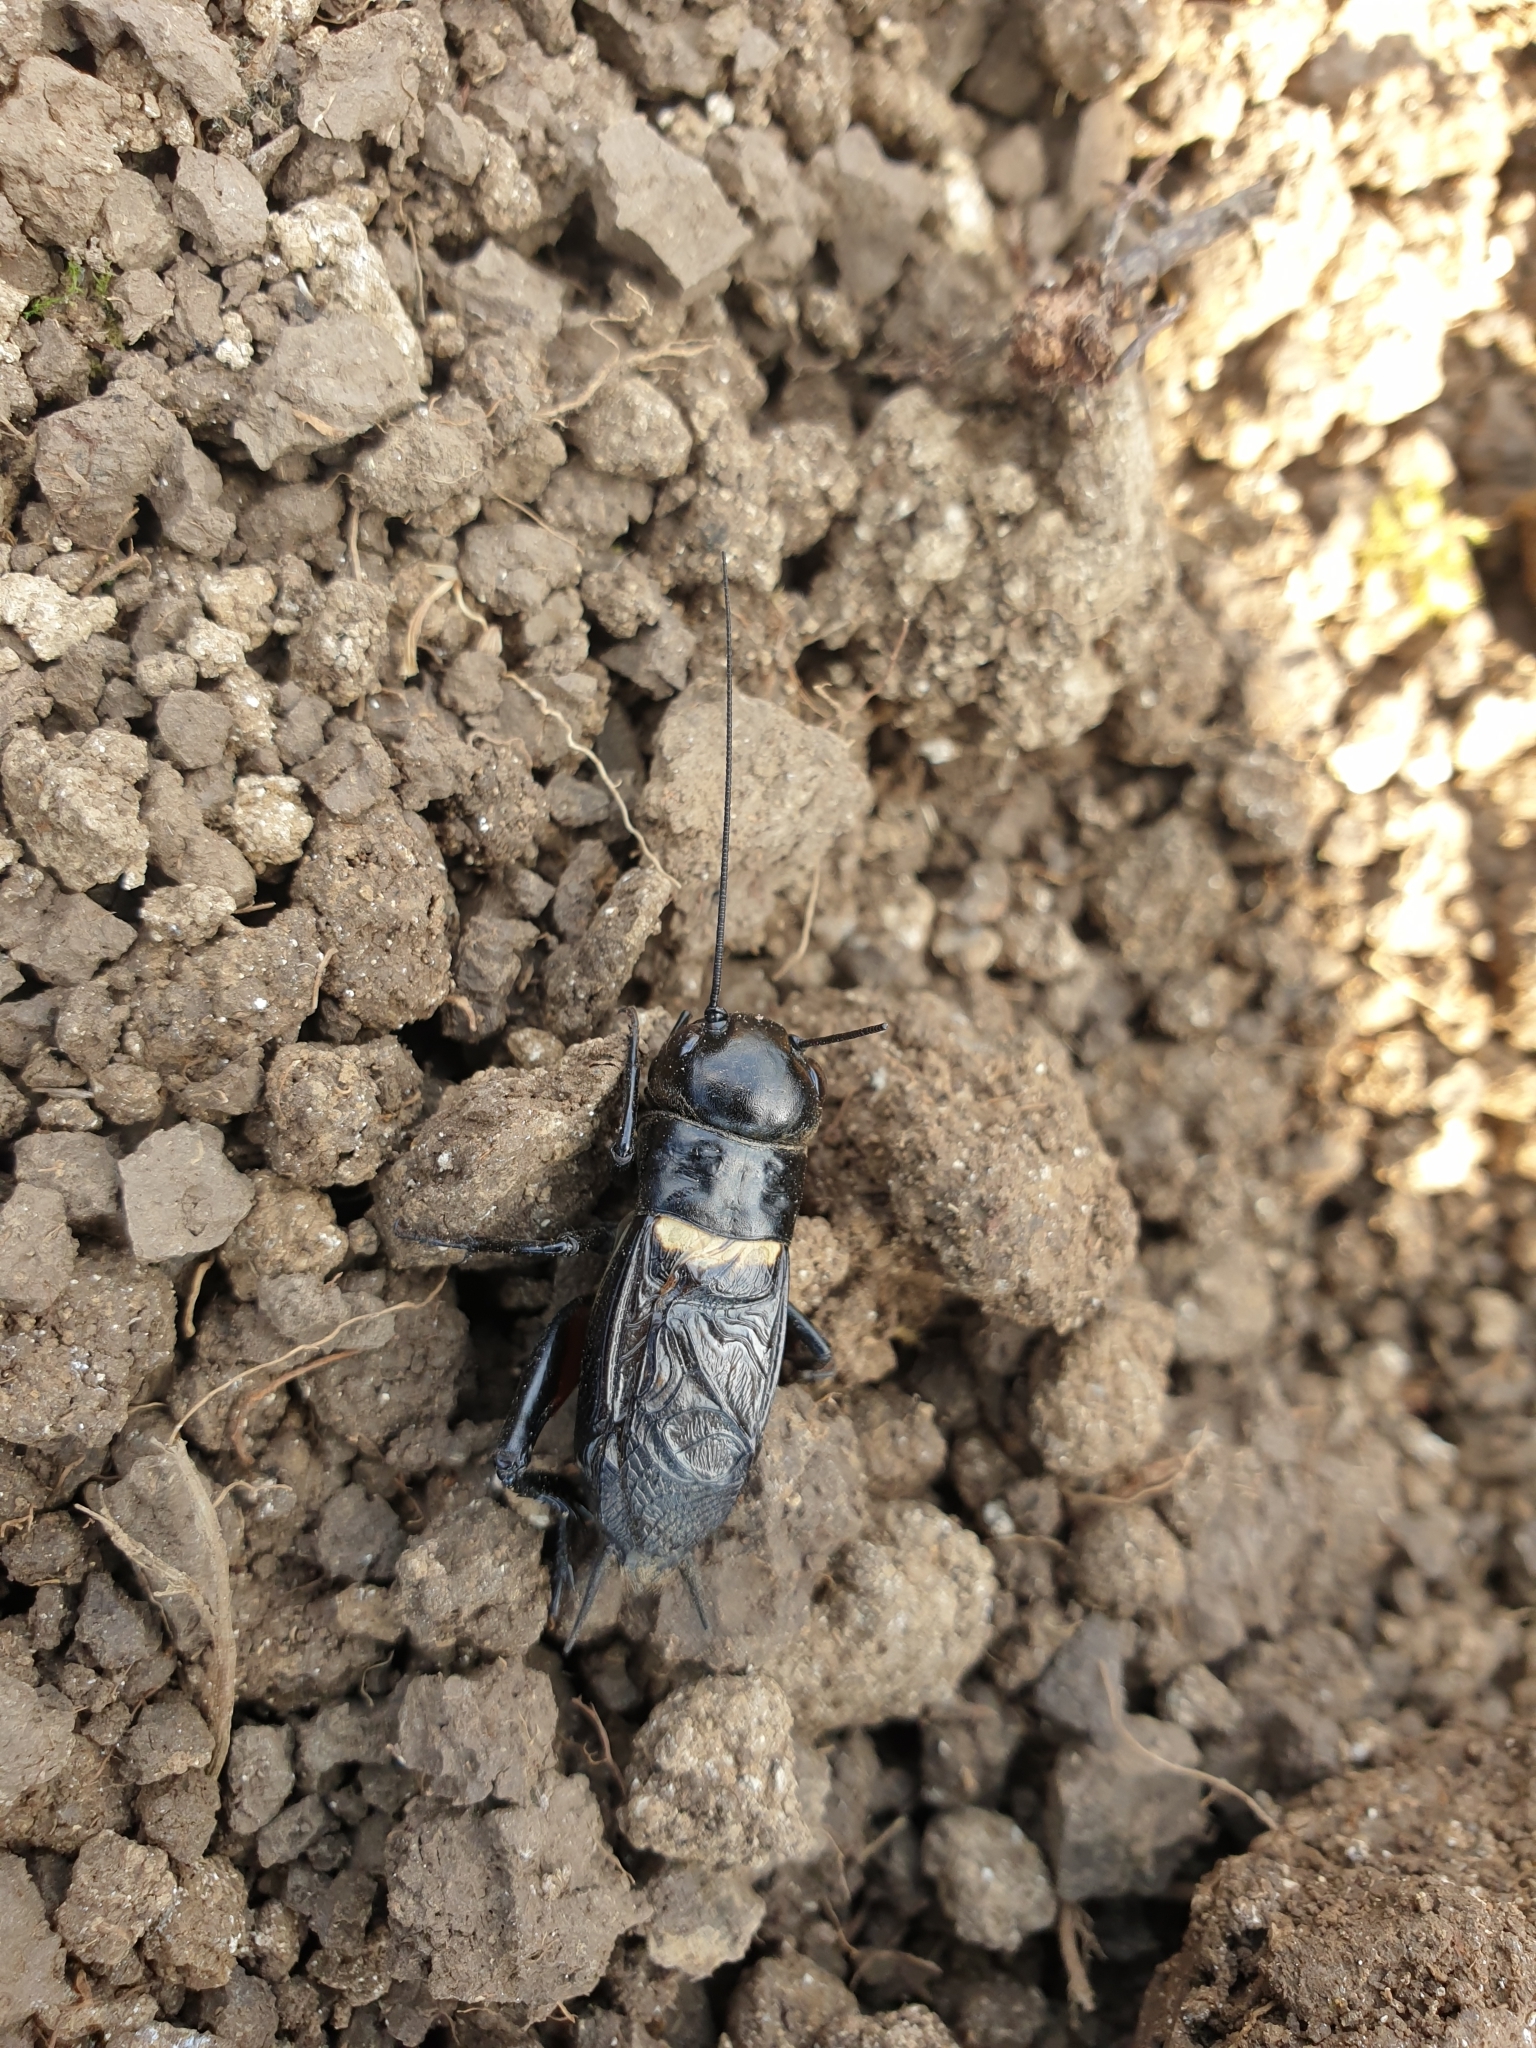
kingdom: Animalia
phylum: Arthropoda
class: Insecta
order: Orthoptera
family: Gryllidae
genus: Gryllus
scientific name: Gryllus campestris
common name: Field cricket
